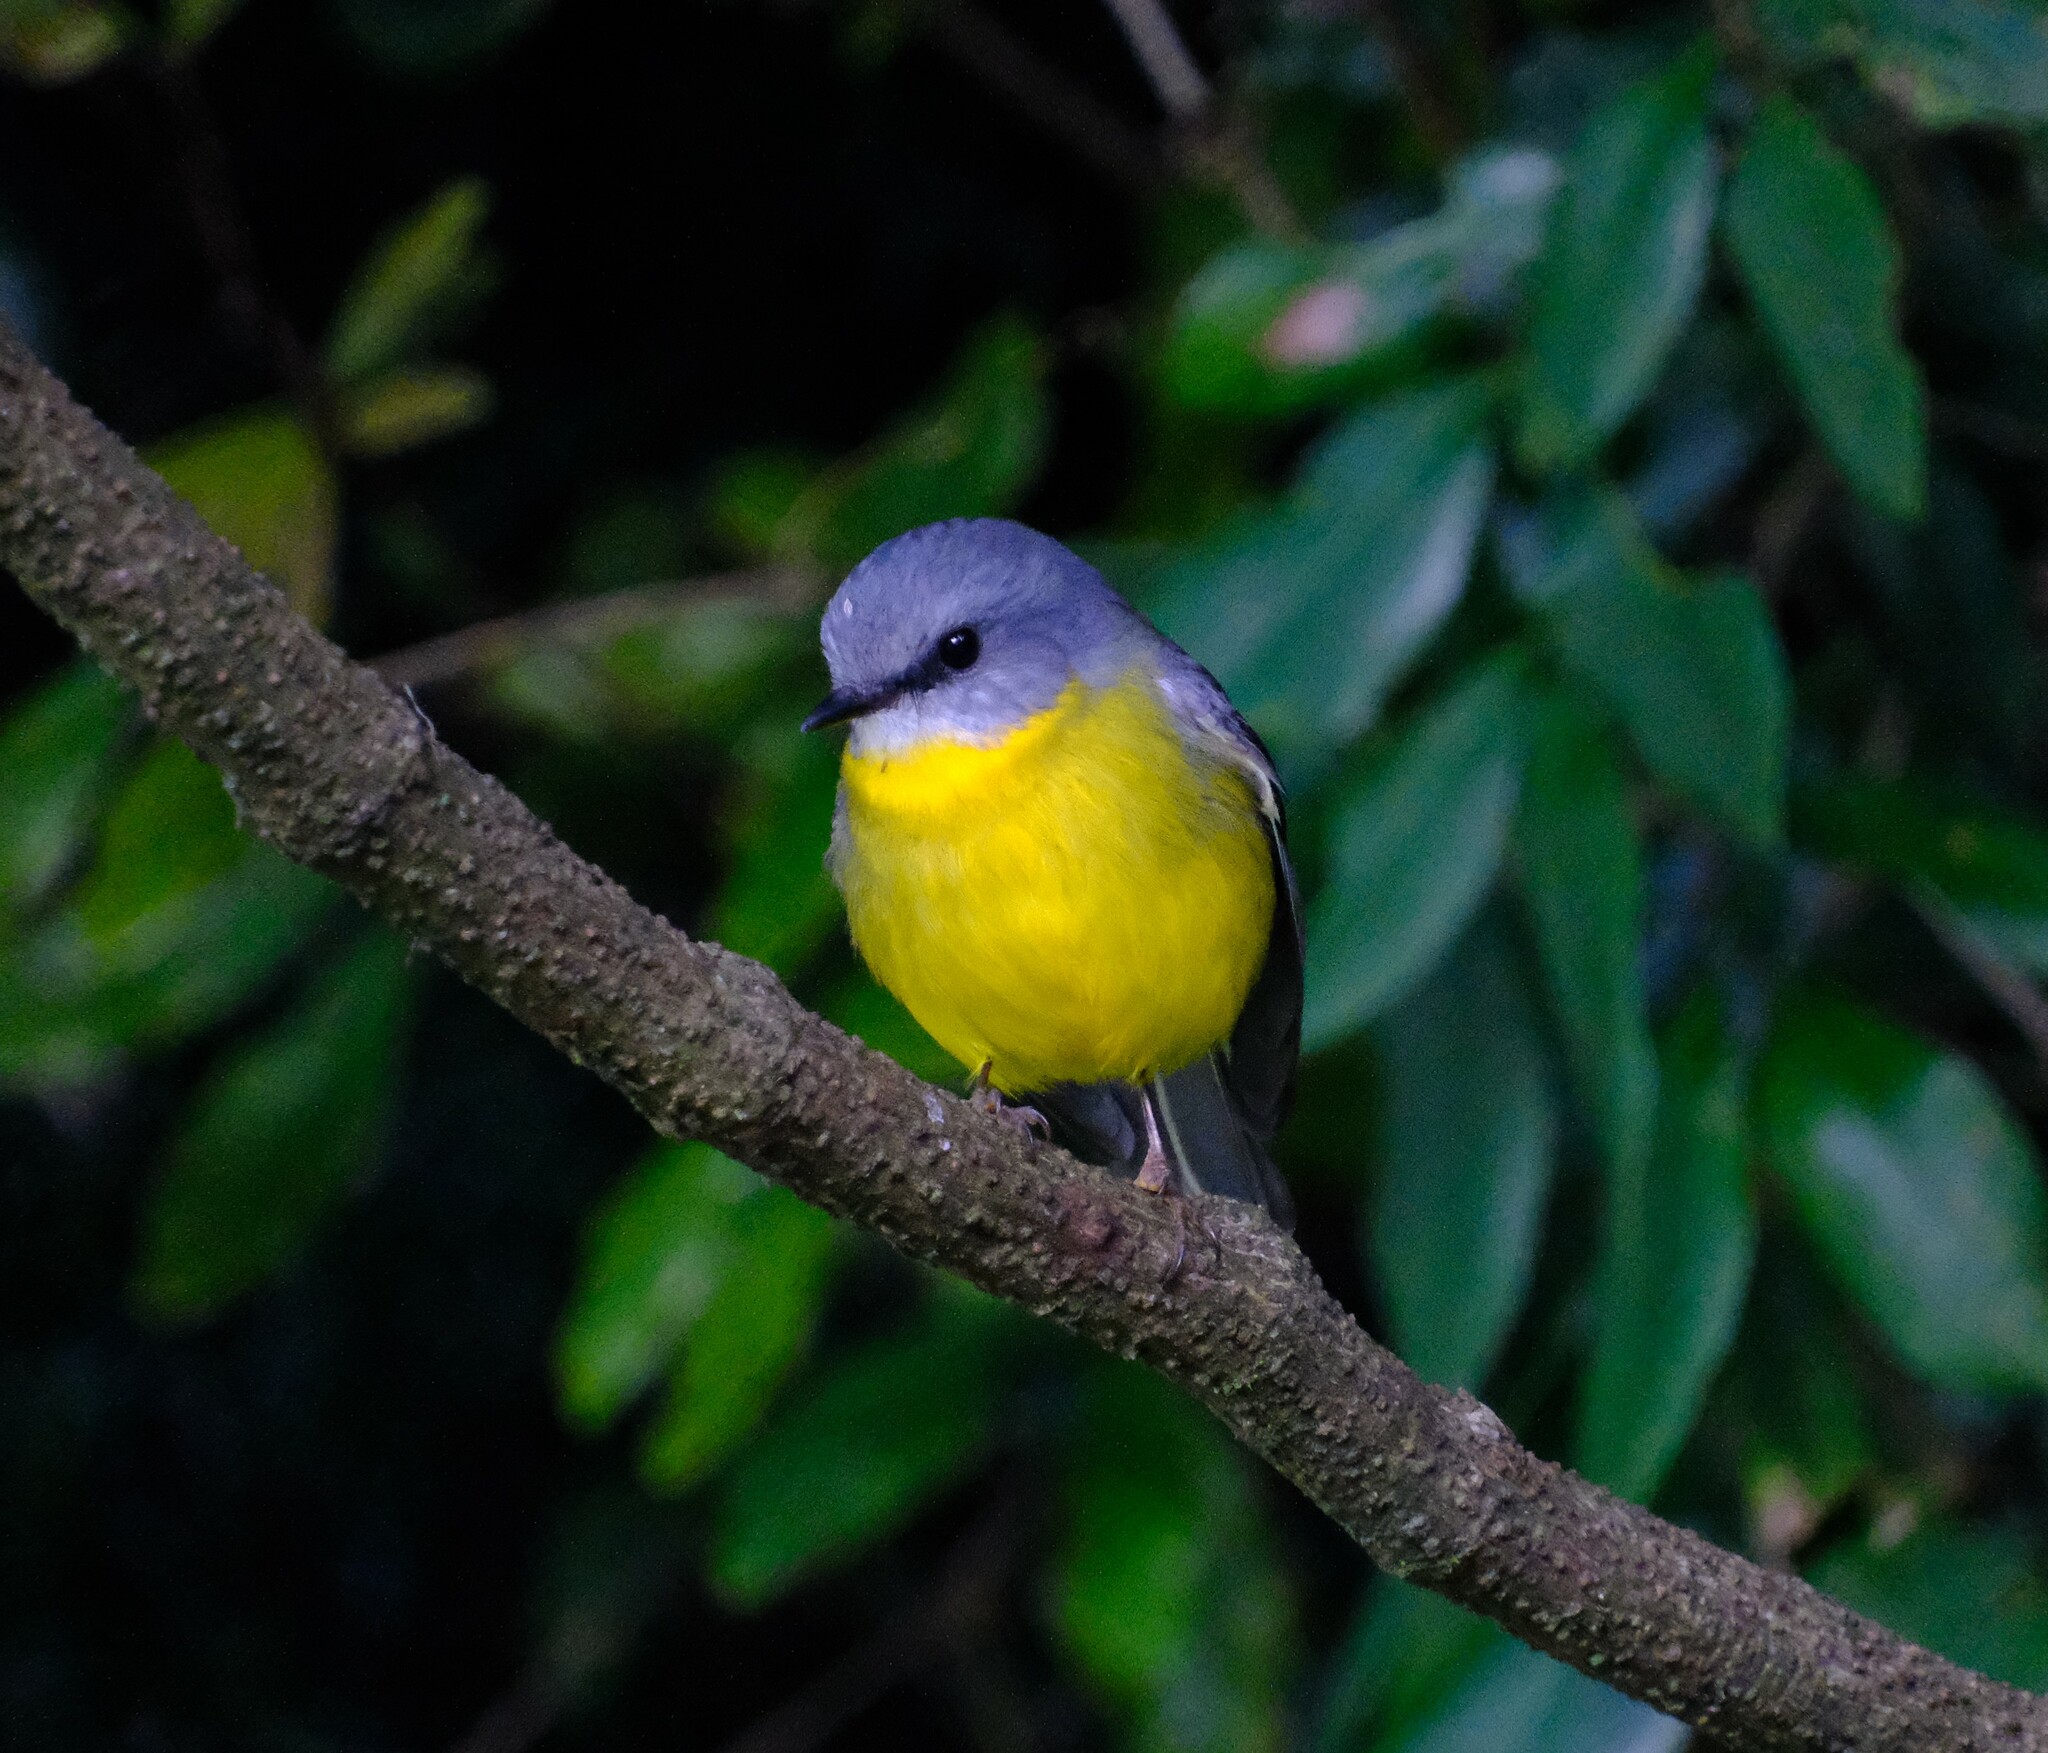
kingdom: Animalia
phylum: Chordata
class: Aves
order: Passeriformes
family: Petroicidae
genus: Eopsaltria
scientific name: Eopsaltria australis
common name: Eastern yellow robin
